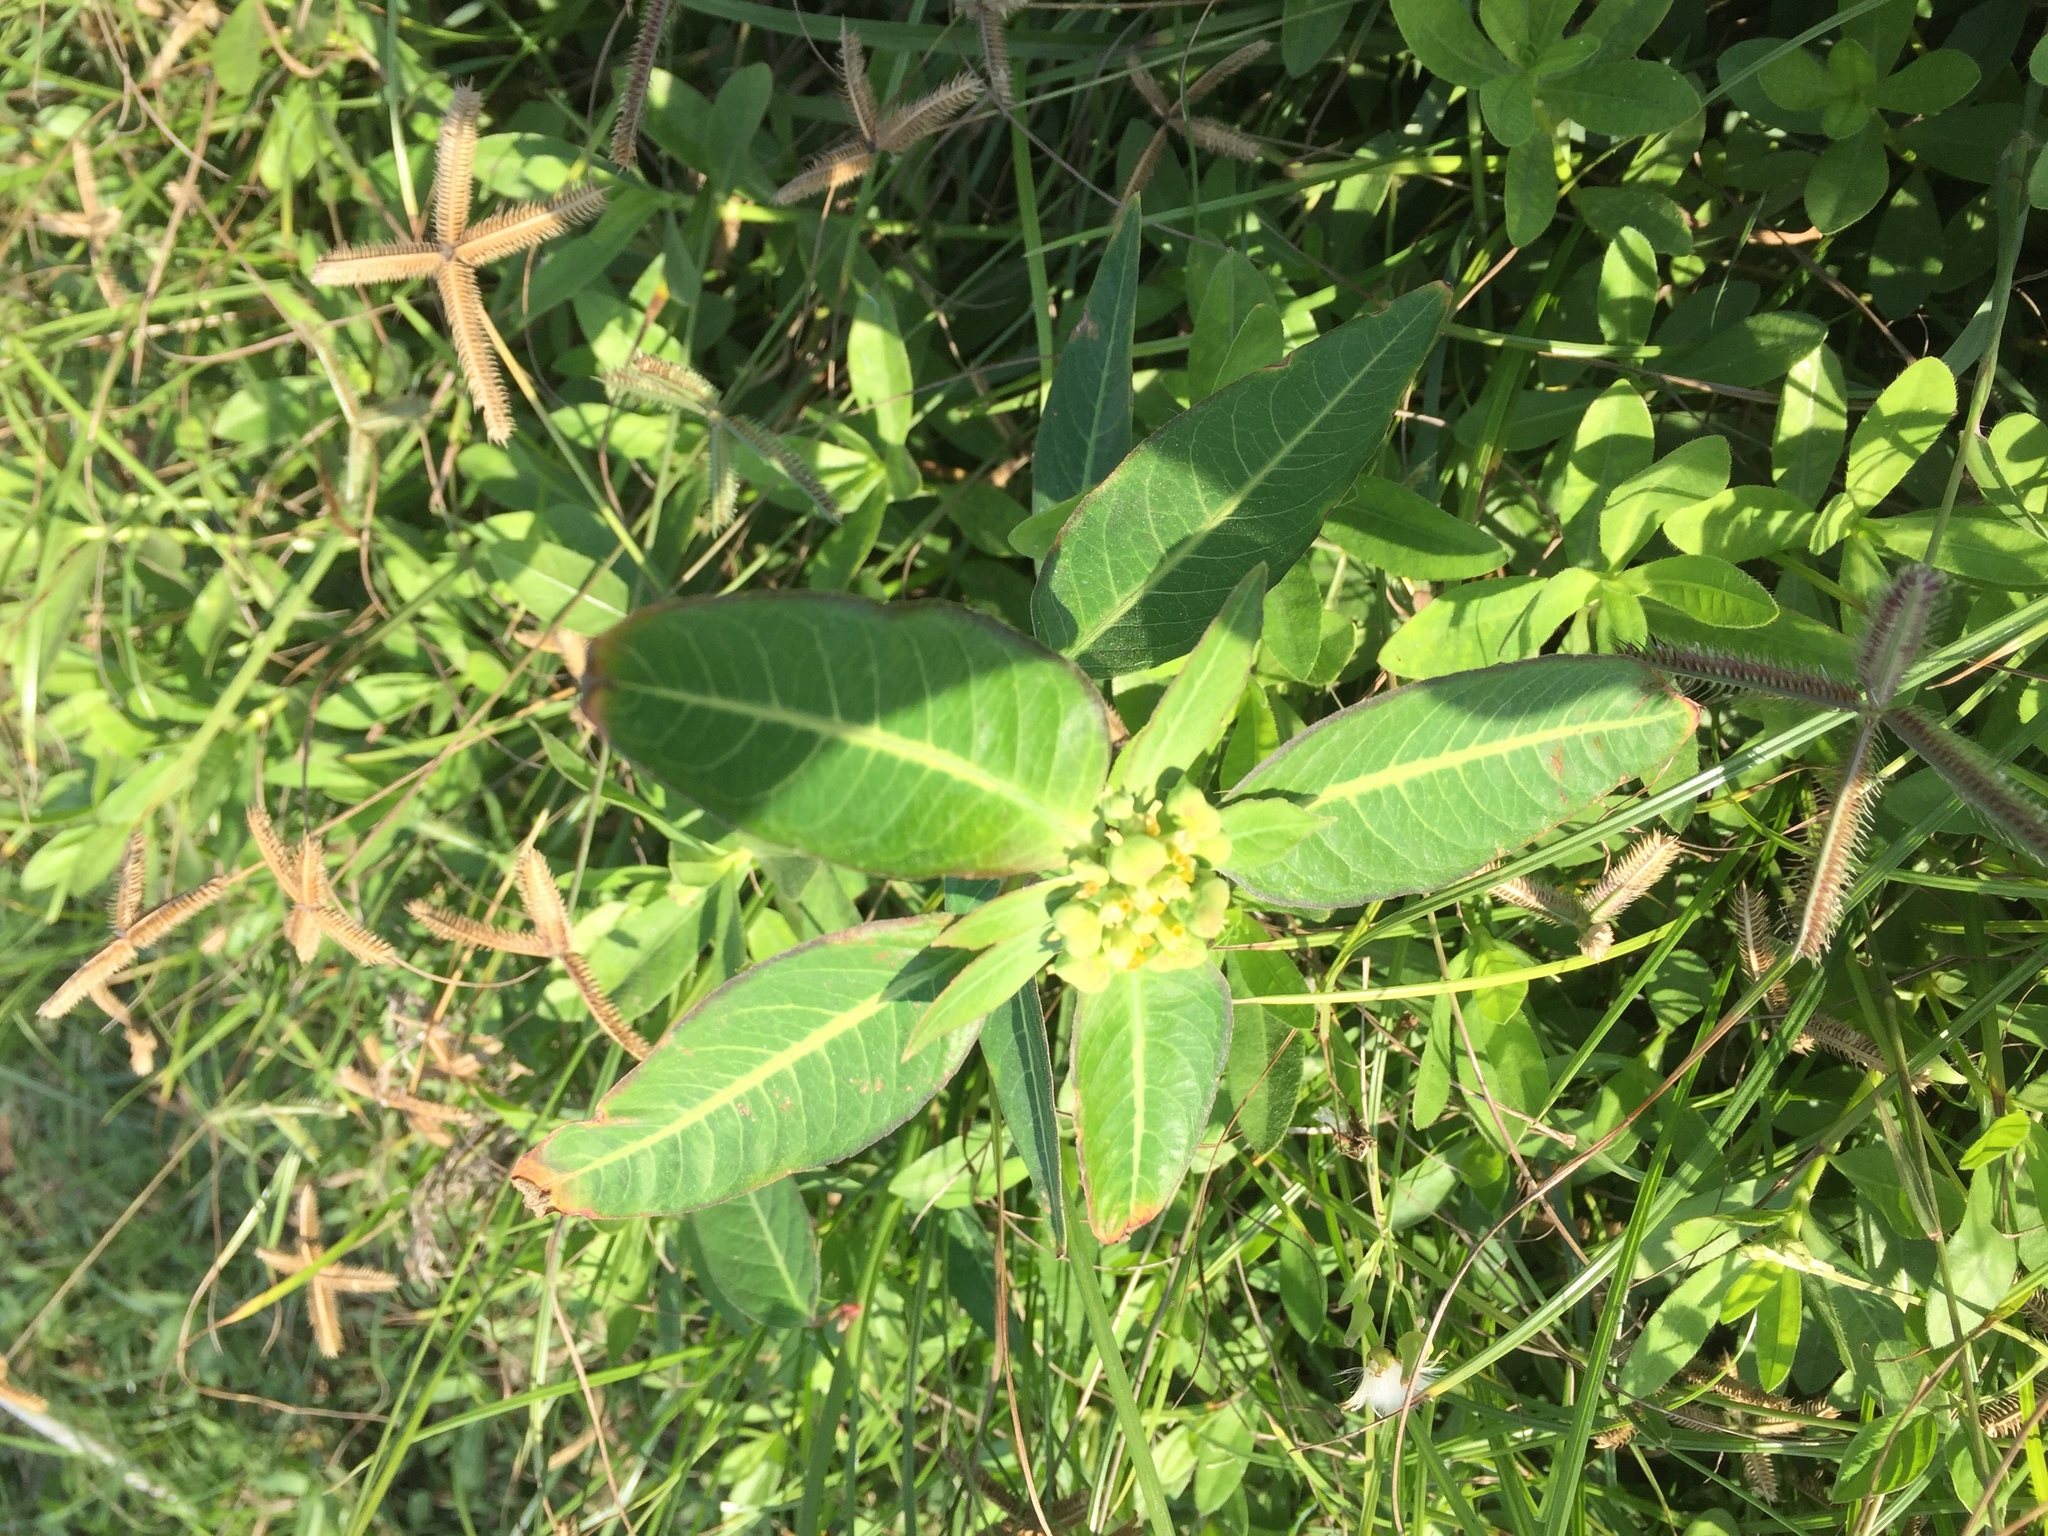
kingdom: Plantae
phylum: Tracheophyta
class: Magnoliopsida
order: Malpighiales
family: Euphorbiaceae
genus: Euphorbia
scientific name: Euphorbia heterophylla
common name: Mexican fireplant
